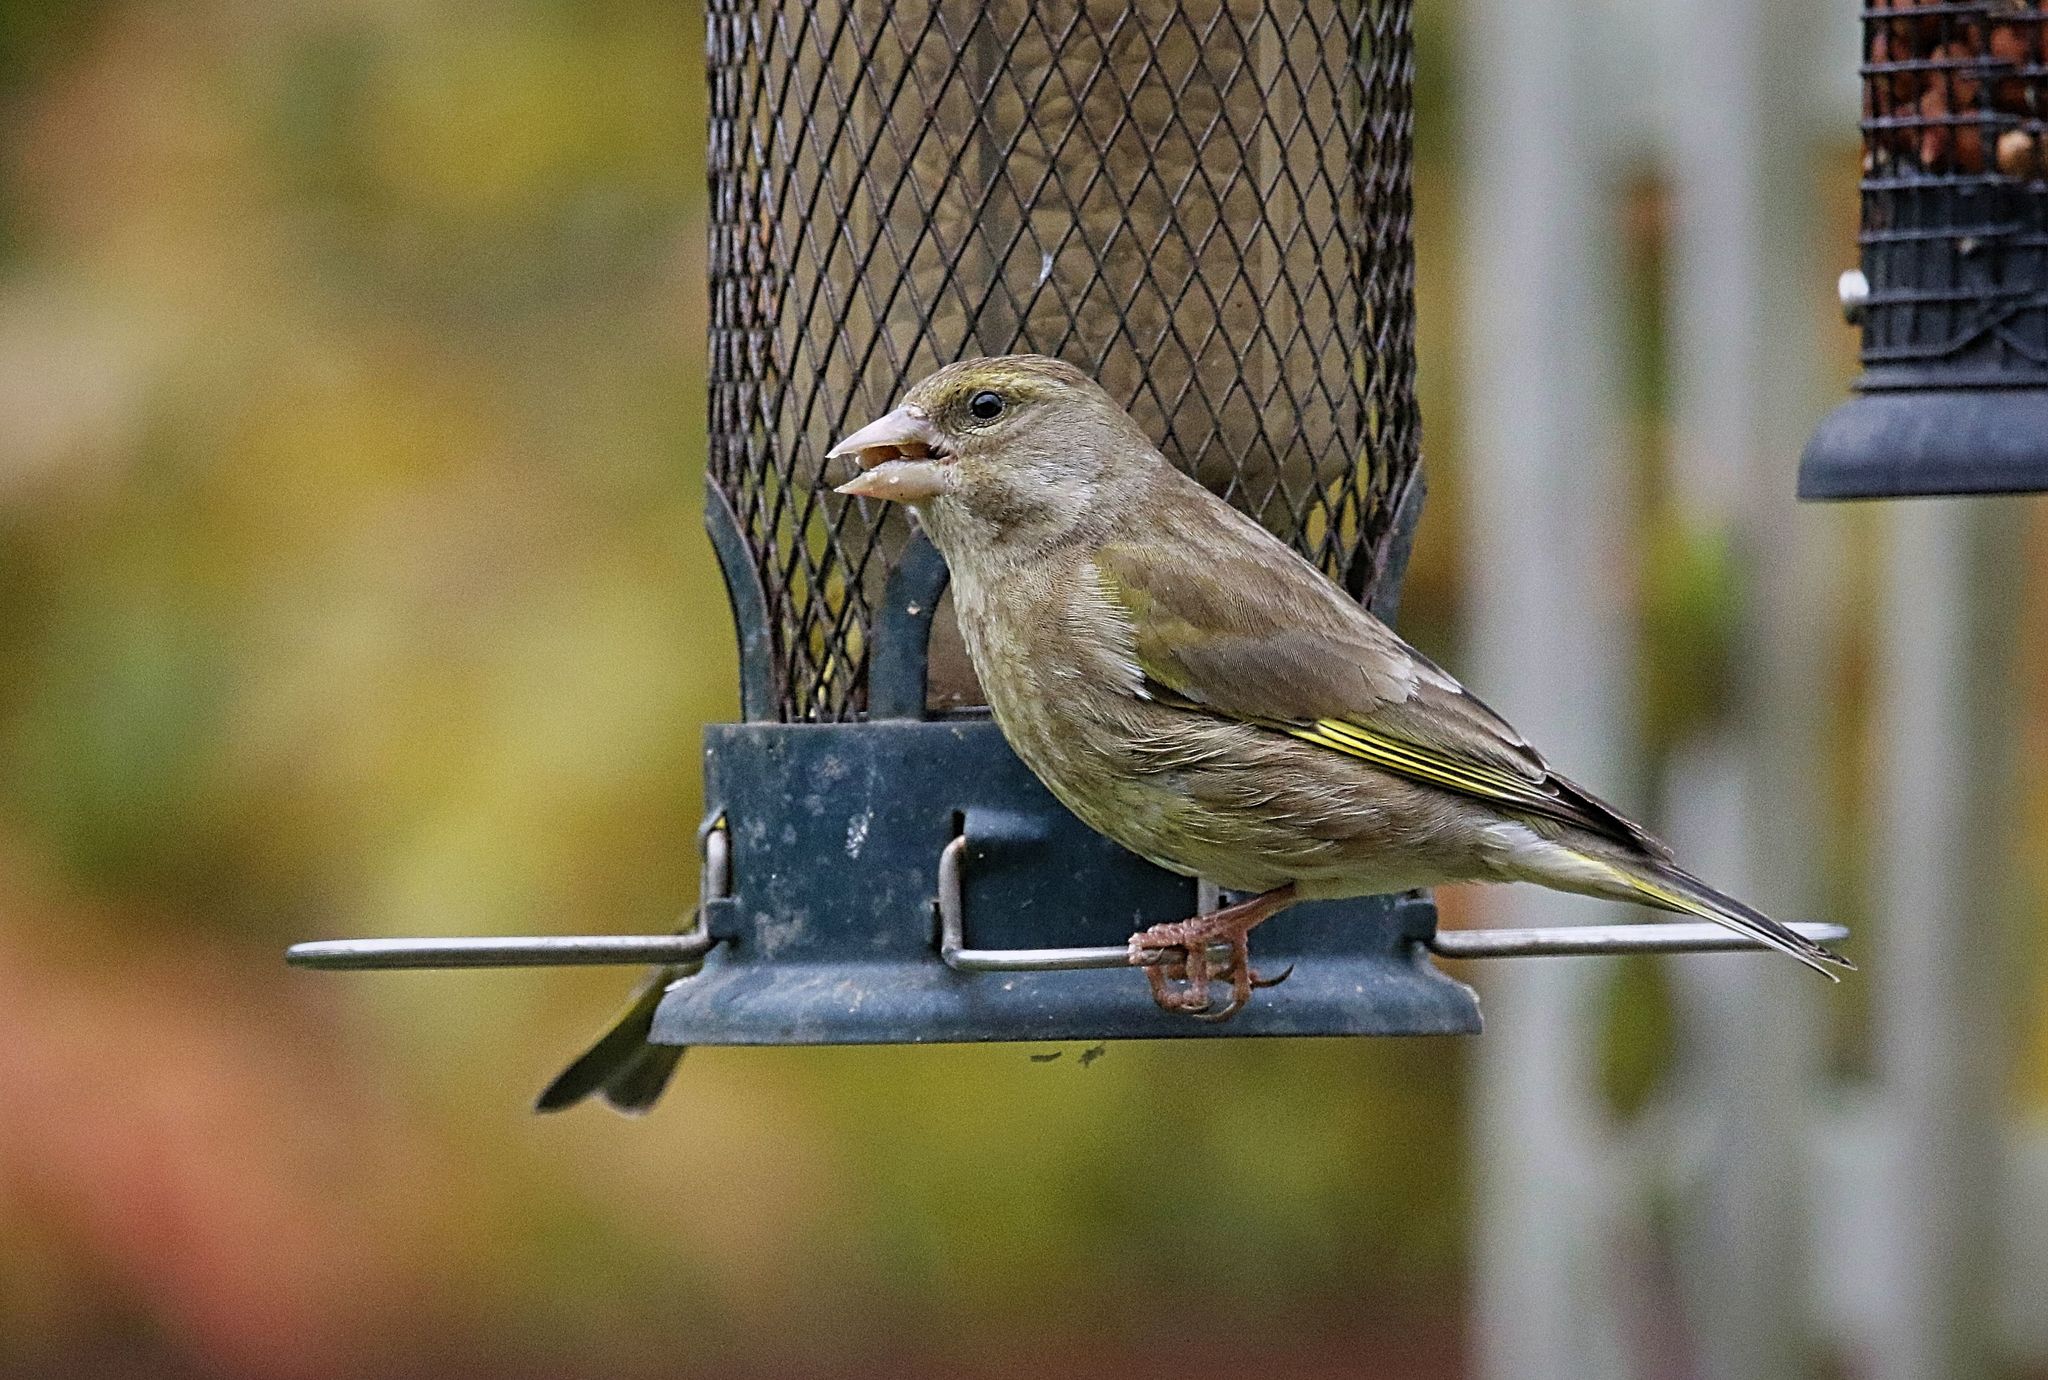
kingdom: Plantae
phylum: Tracheophyta
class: Liliopsida
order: Poales
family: Poaceae
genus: Chloris
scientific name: Chloris chloris
